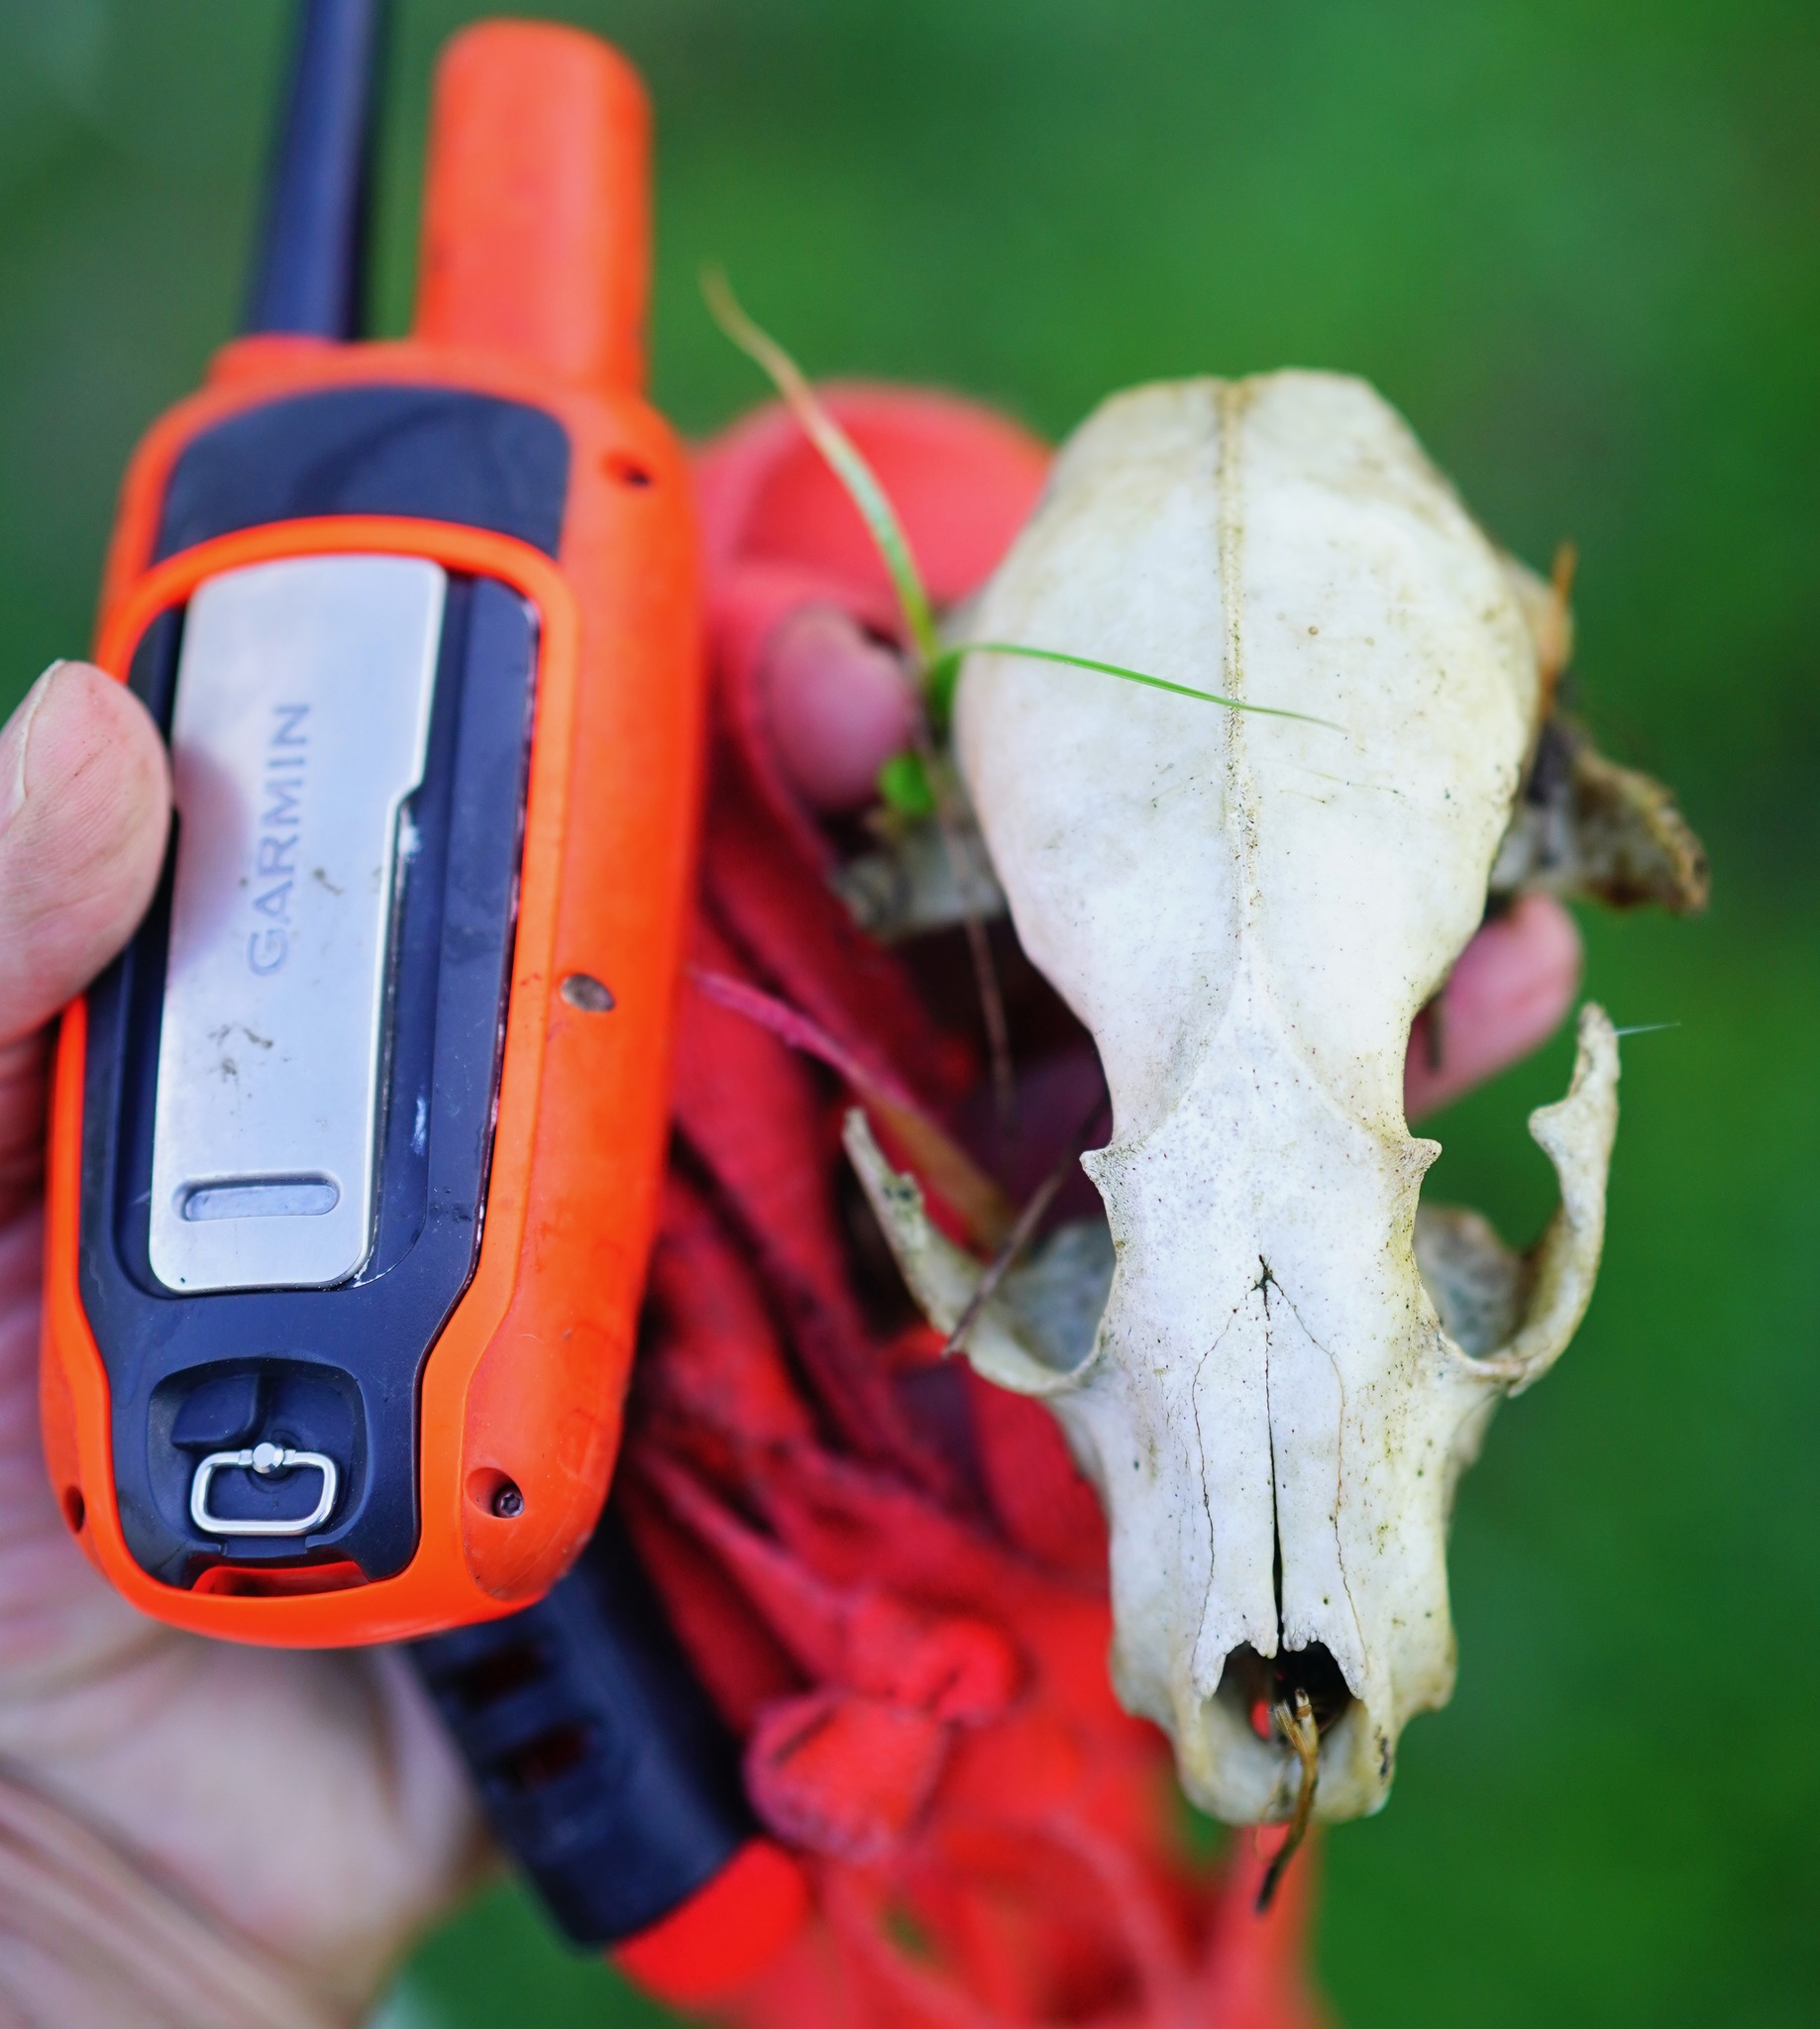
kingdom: Animalia
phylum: Chordata
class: Mammalia
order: Carnivora
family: Procyonidae
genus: Procyon
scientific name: Procyon lotor
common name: Raccoon
